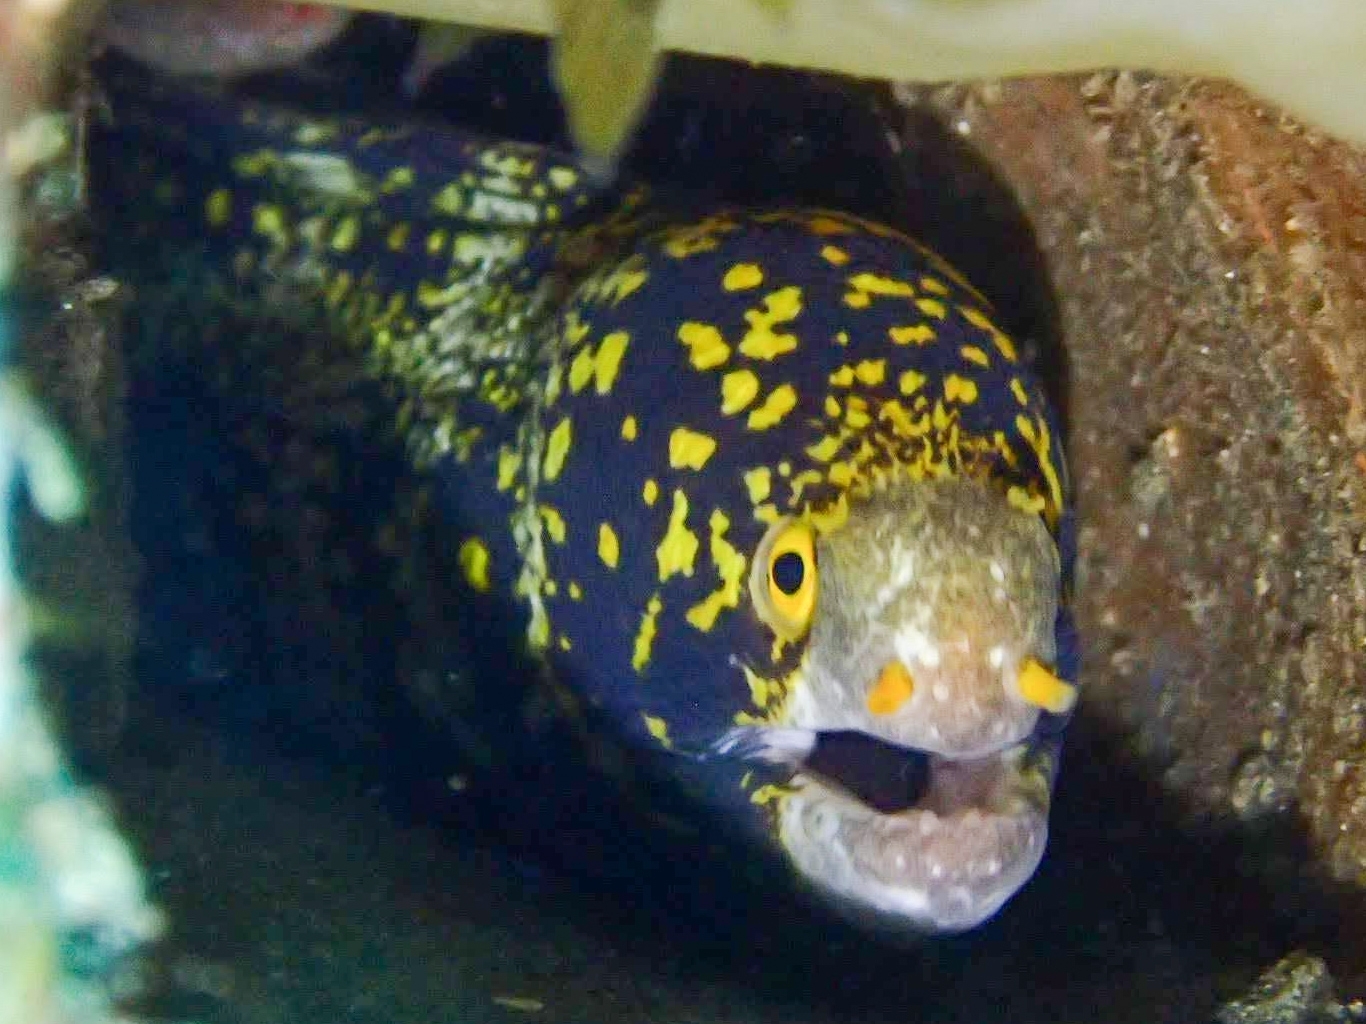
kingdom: Animalia
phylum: Chordata
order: Anguilliformes
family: Muraenidae
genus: Echidna
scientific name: Echidna nebulosa
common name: Snowflake moray
